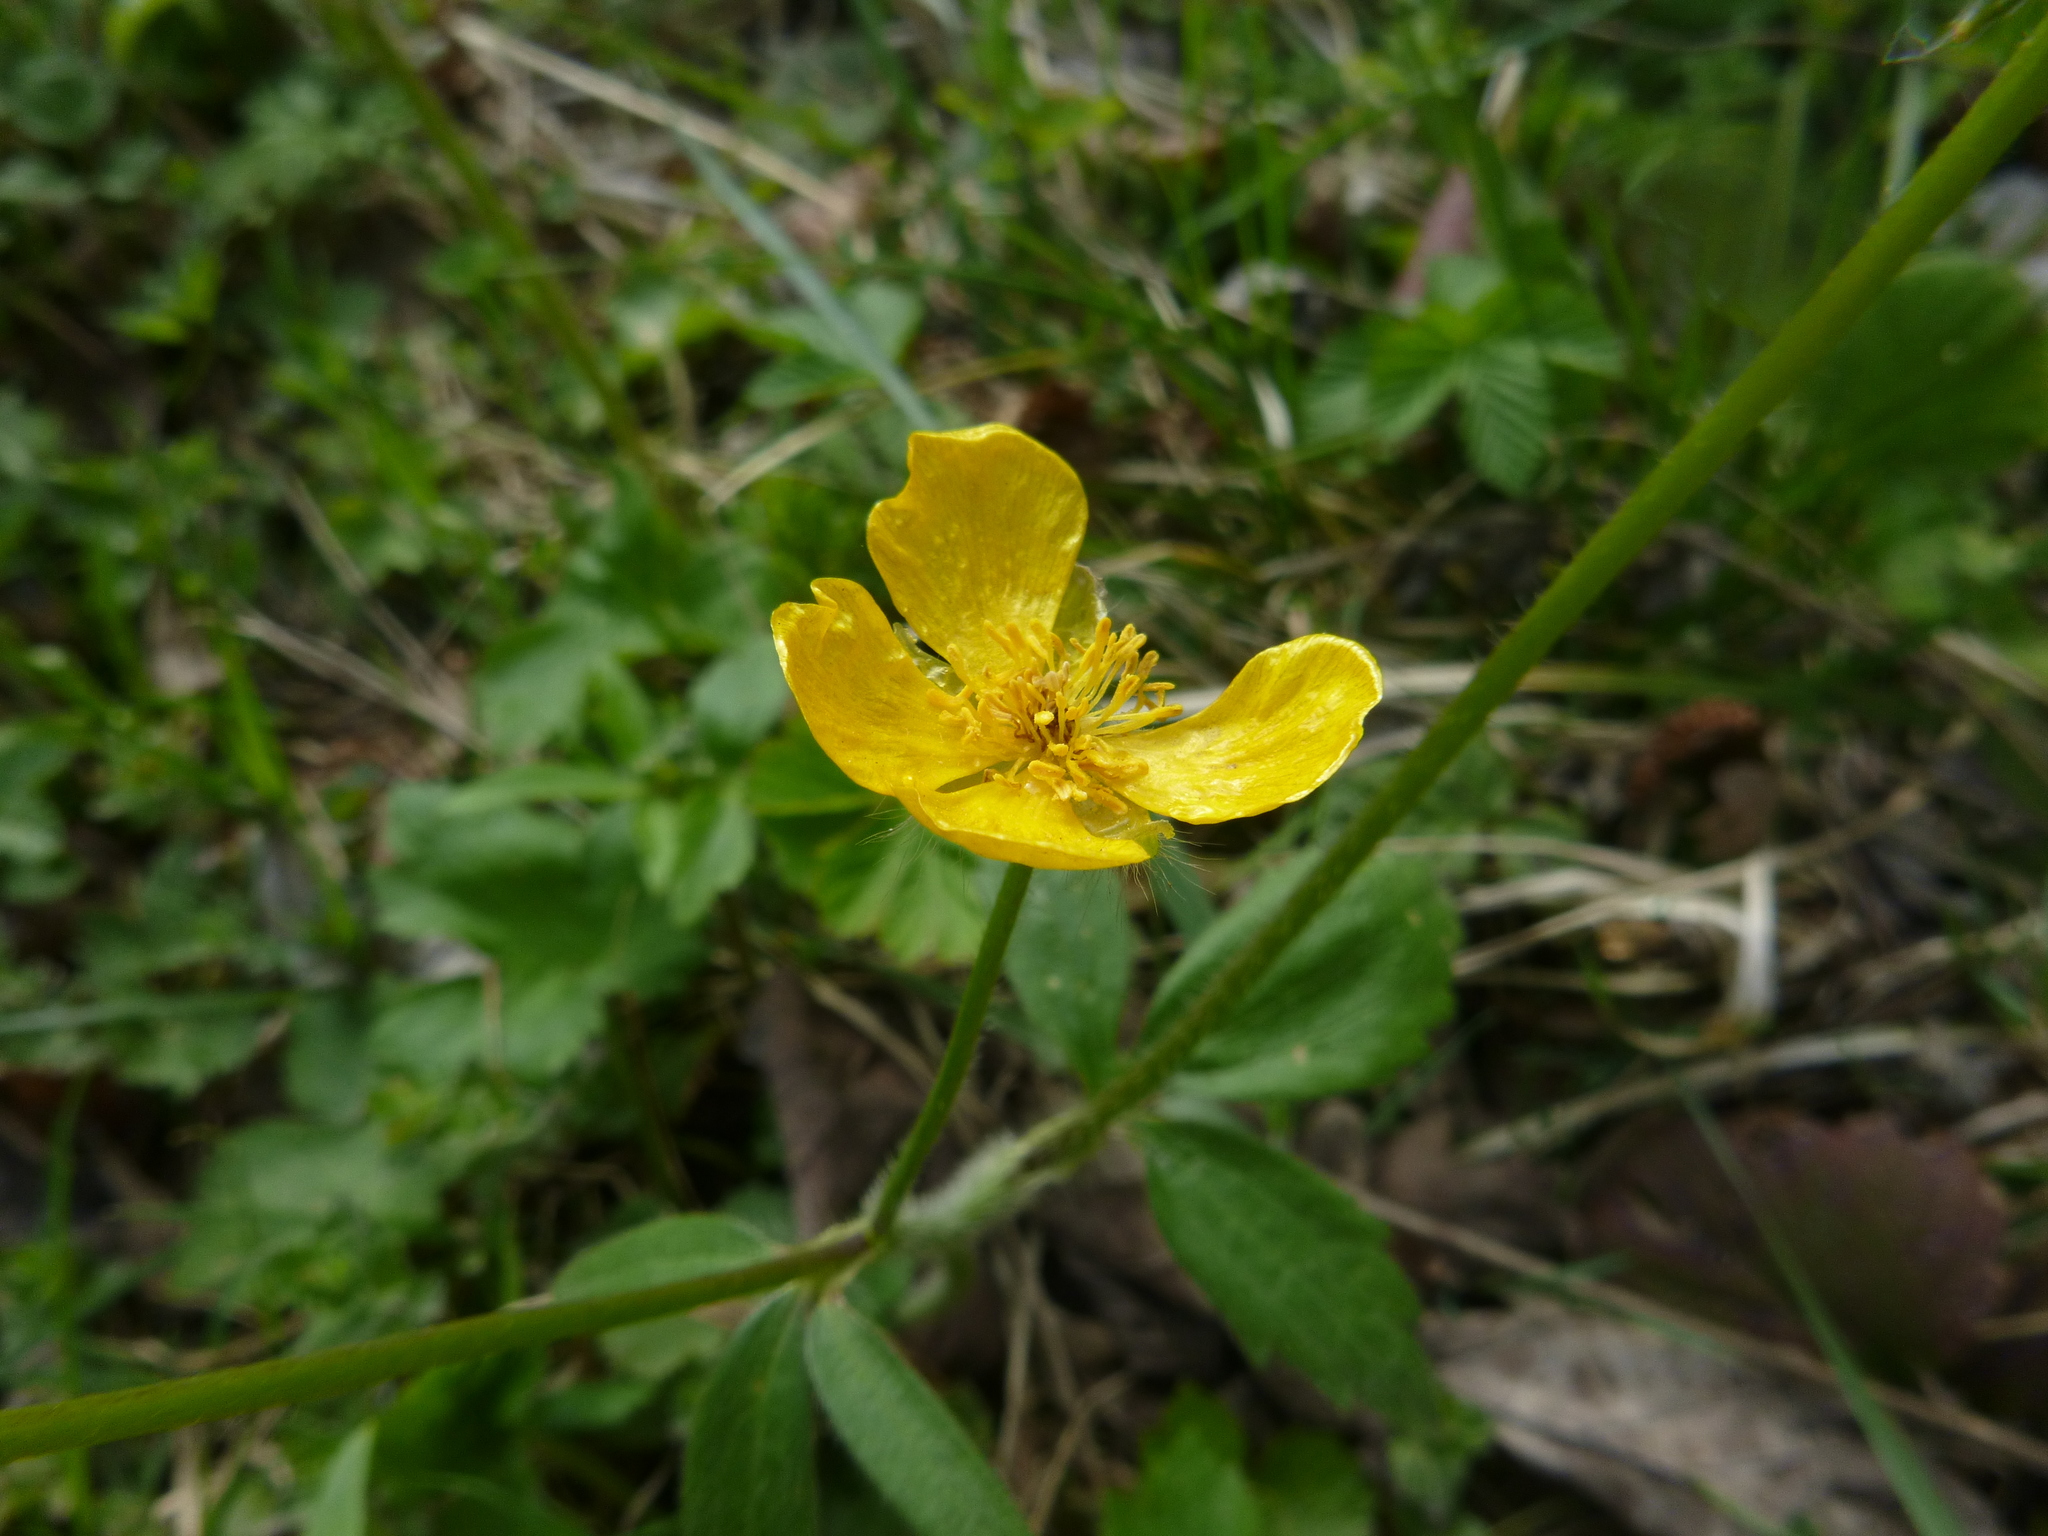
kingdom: Plantae
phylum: Tracheophyta
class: Magnoliopsida
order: Ranunculales
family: Ranunculaceae
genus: Ranunculus
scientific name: Ranunculus lanuginosus
